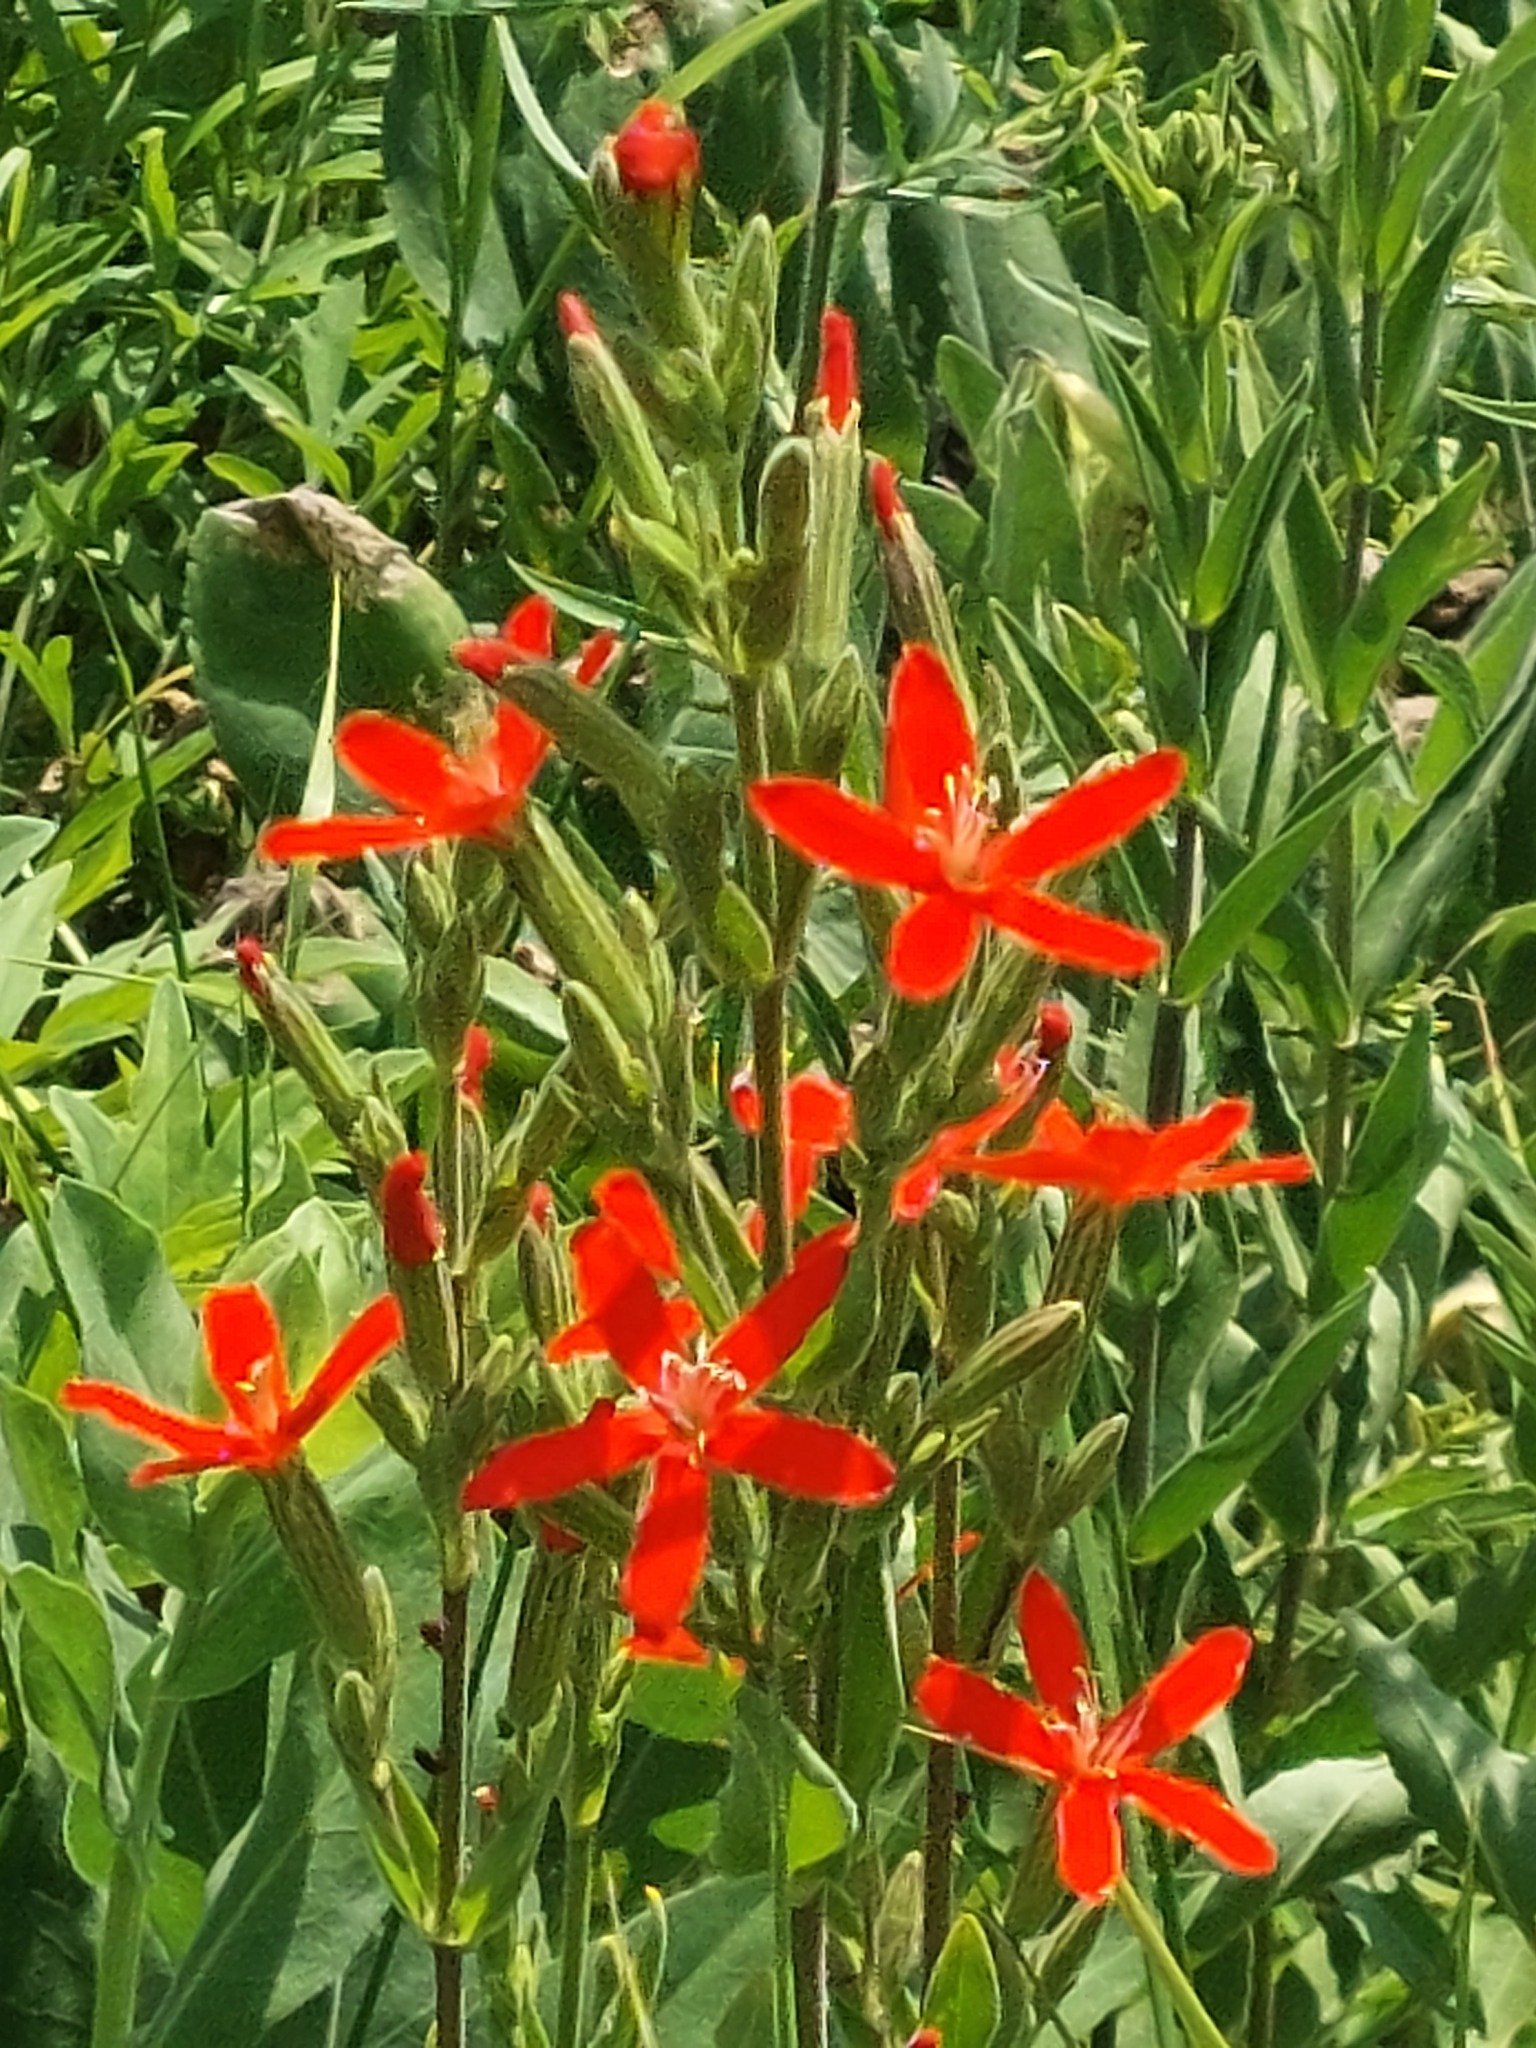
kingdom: Plantae
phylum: Tracheophyta
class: Magnoliopsida
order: Caryophyllales
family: Caryophyllaceae
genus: Silene
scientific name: Silene regia
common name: Royal catchfly
